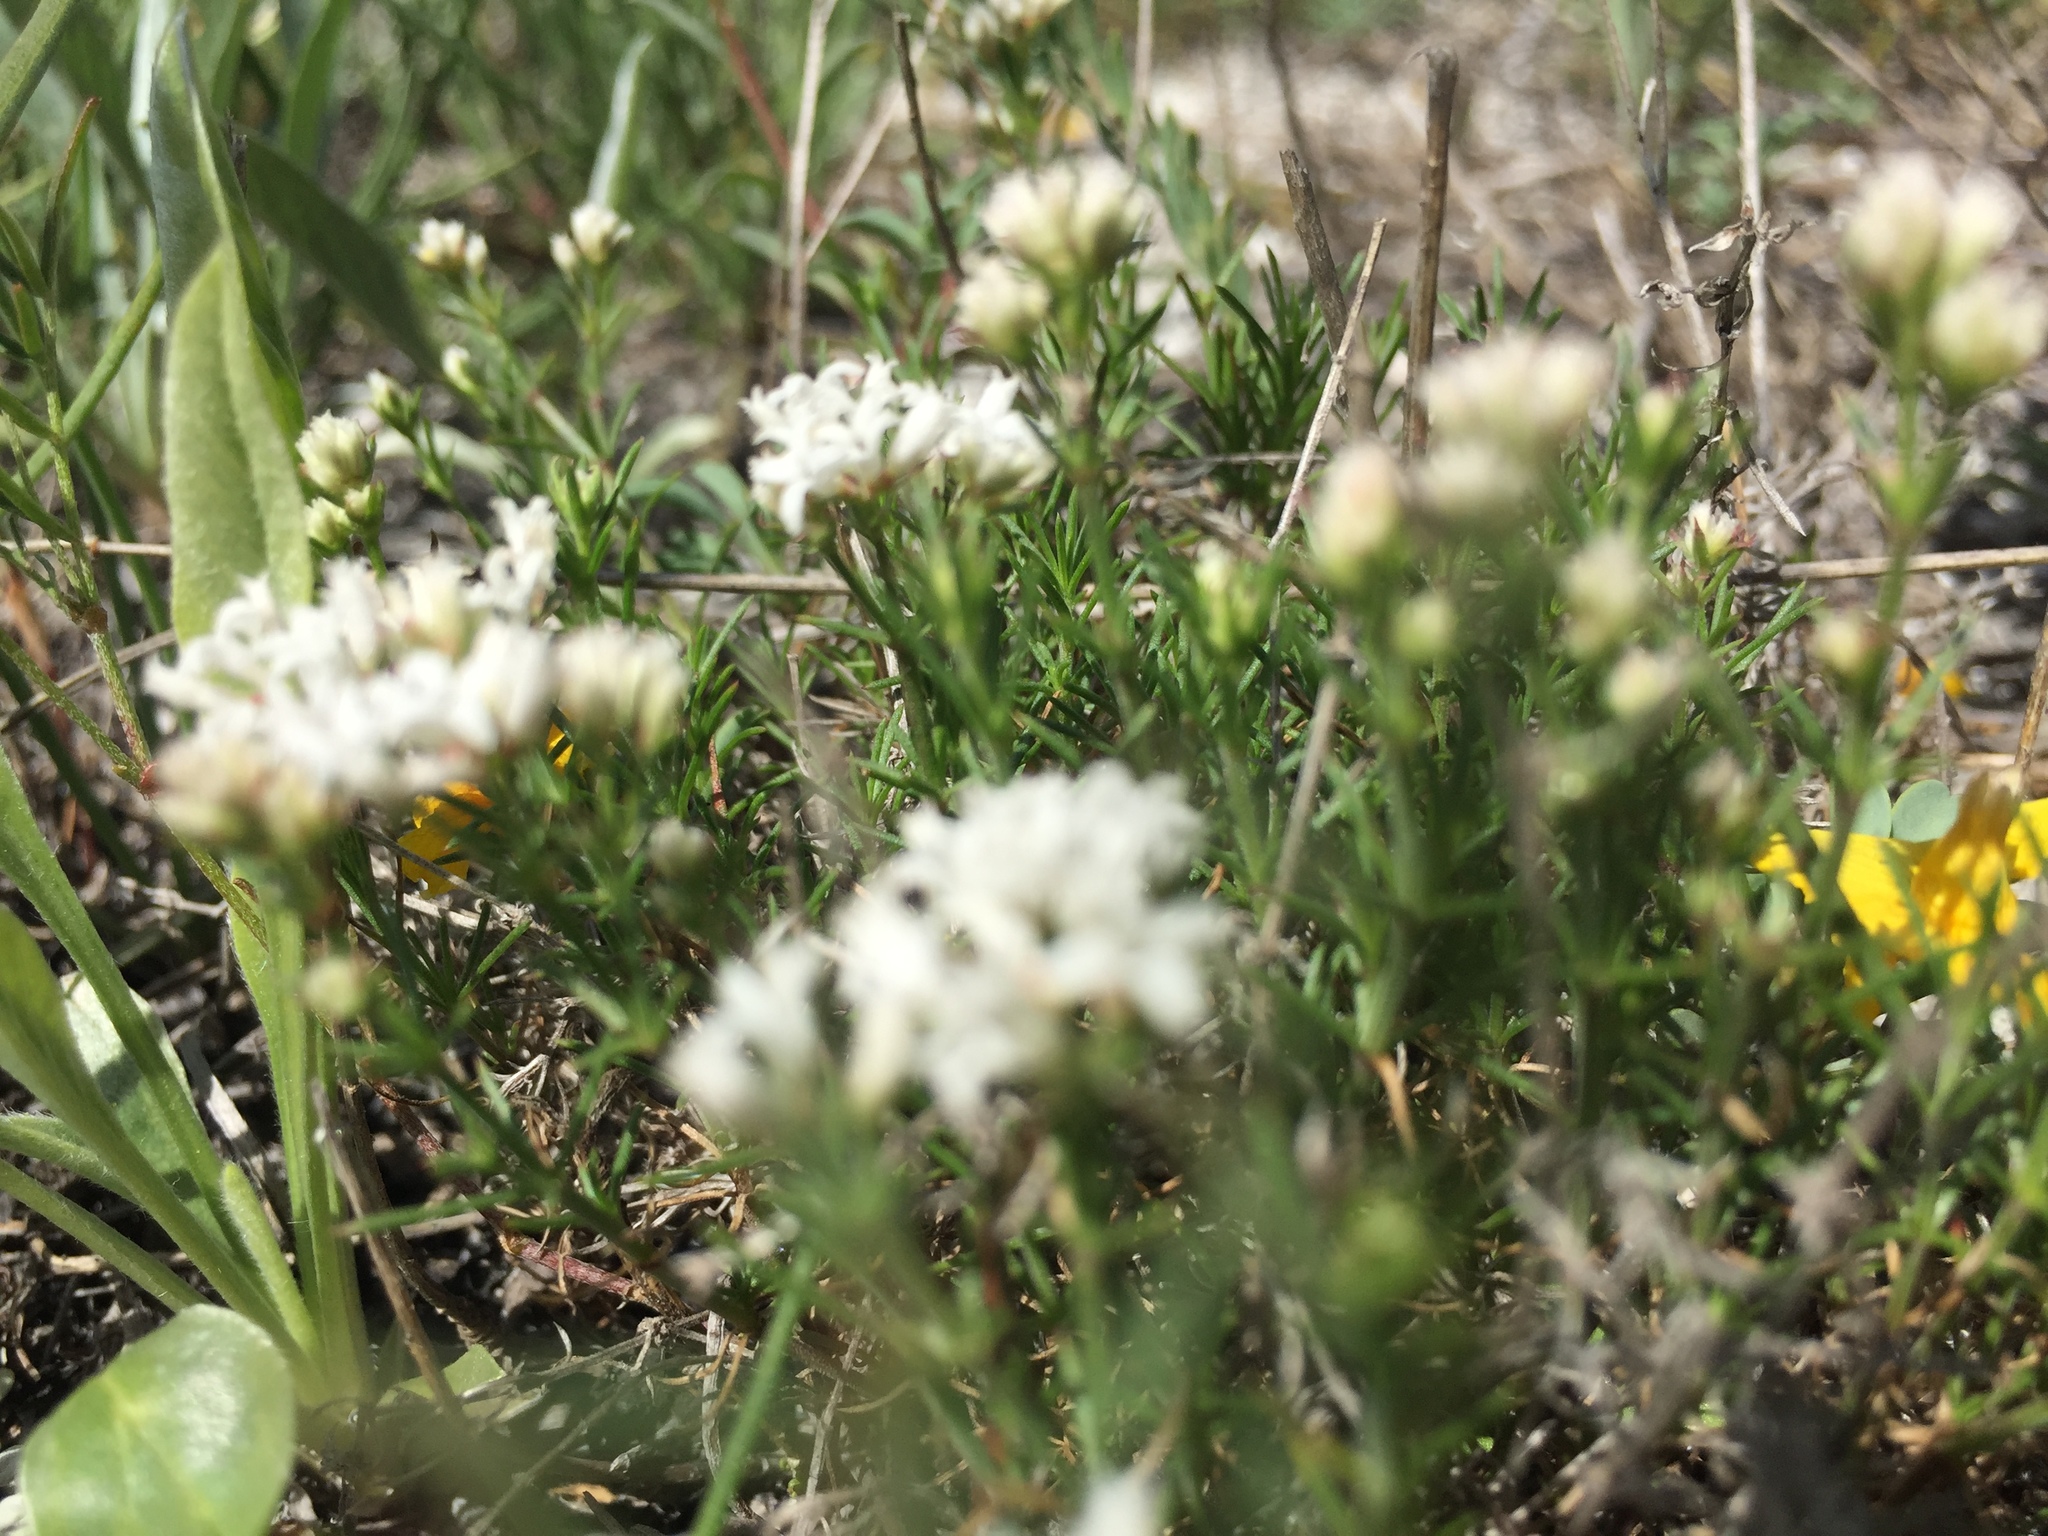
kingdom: Plantae
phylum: Tracheophyta
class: Magnoliopsida
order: Gentianales
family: Rubiaceae
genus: Cynanchica
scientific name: Cynanchica tephrocarpa
